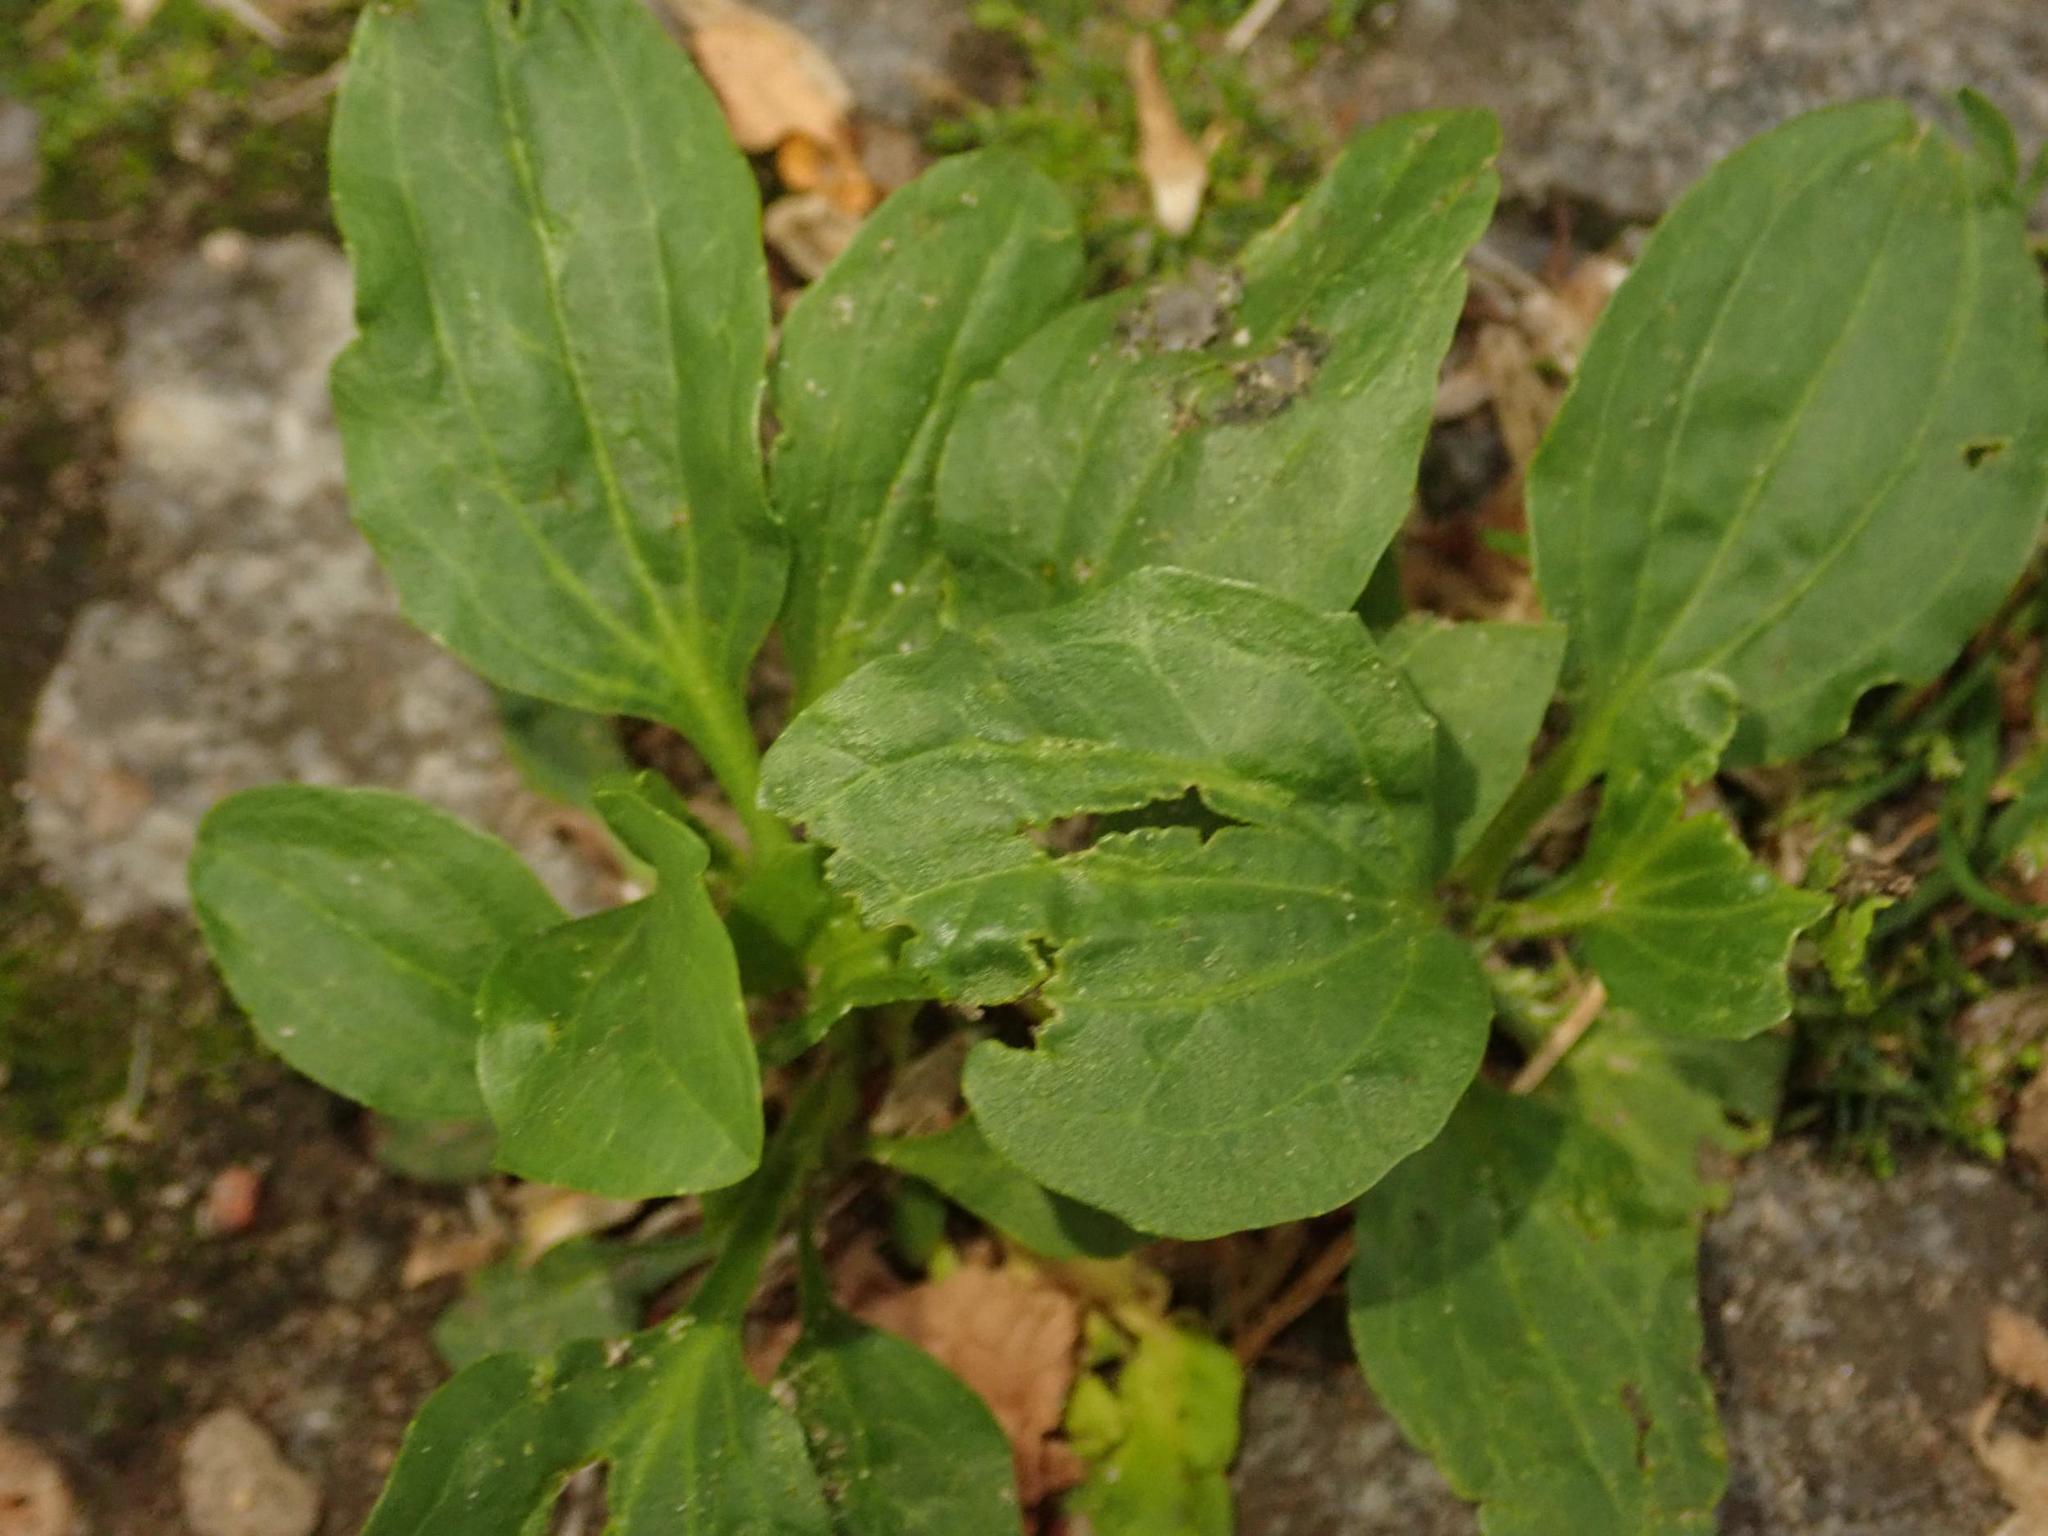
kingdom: Plantae
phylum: Tracheophyta
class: Magnoliopsida
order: Lamiales
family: Plantaginaceae
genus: Plantago
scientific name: Plantago major
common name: Common plantain
